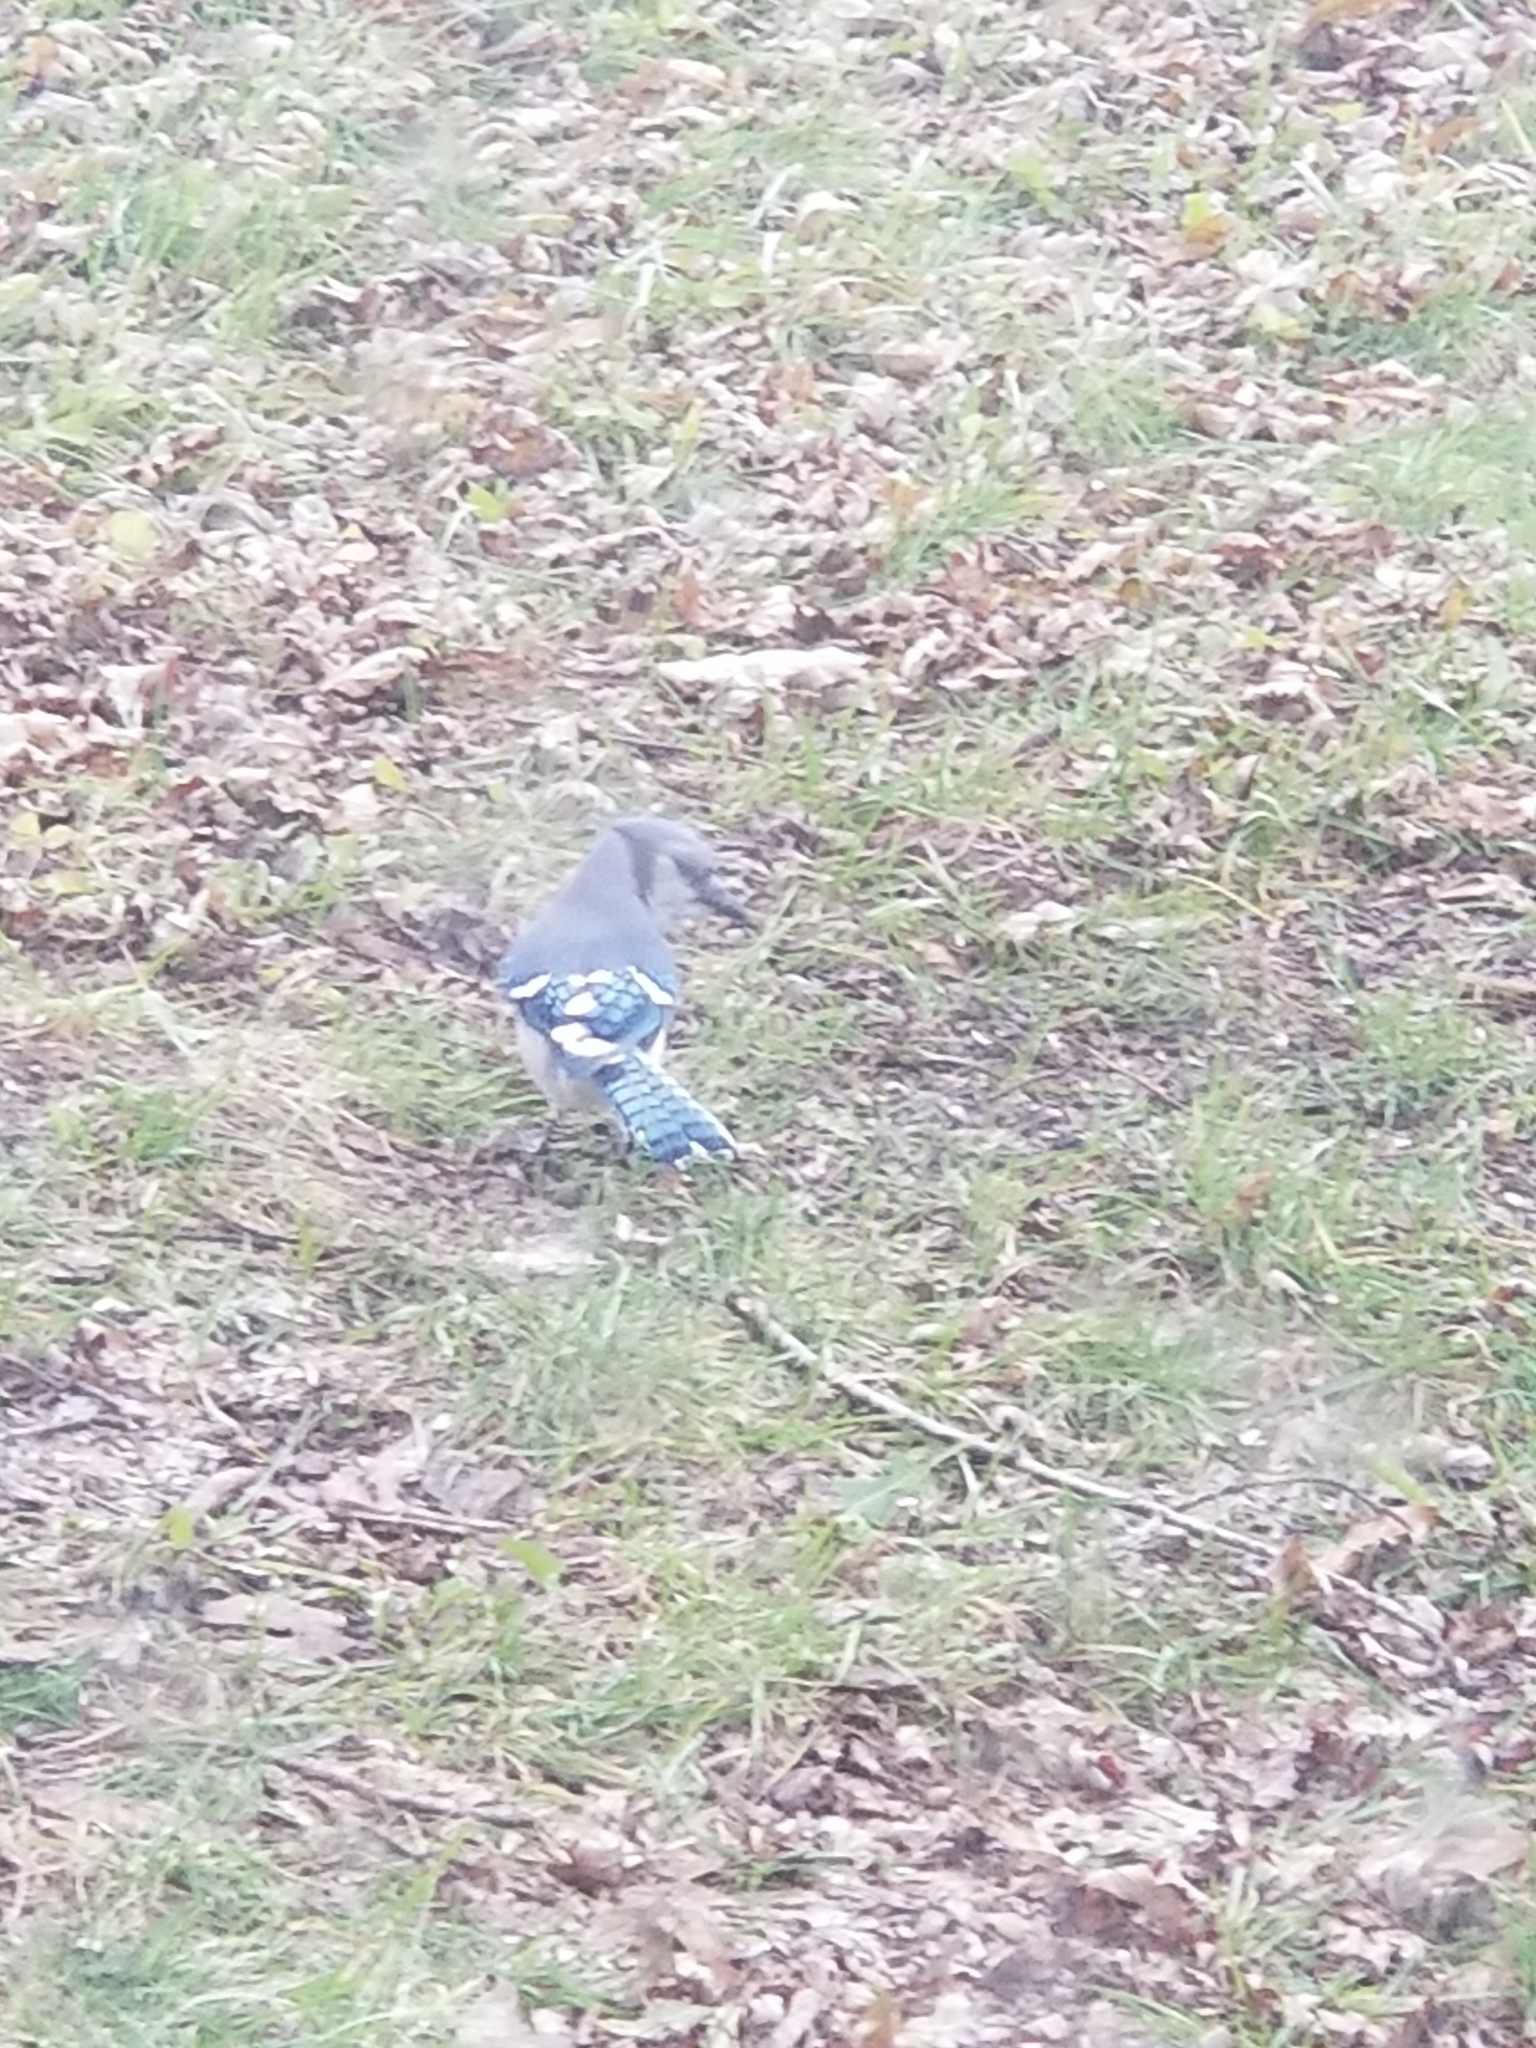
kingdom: Animalia
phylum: Chordata
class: Aves
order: Passeriformes
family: Corvidae
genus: Cyanocitta
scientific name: Cyanocitta cristata
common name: Blue jay
